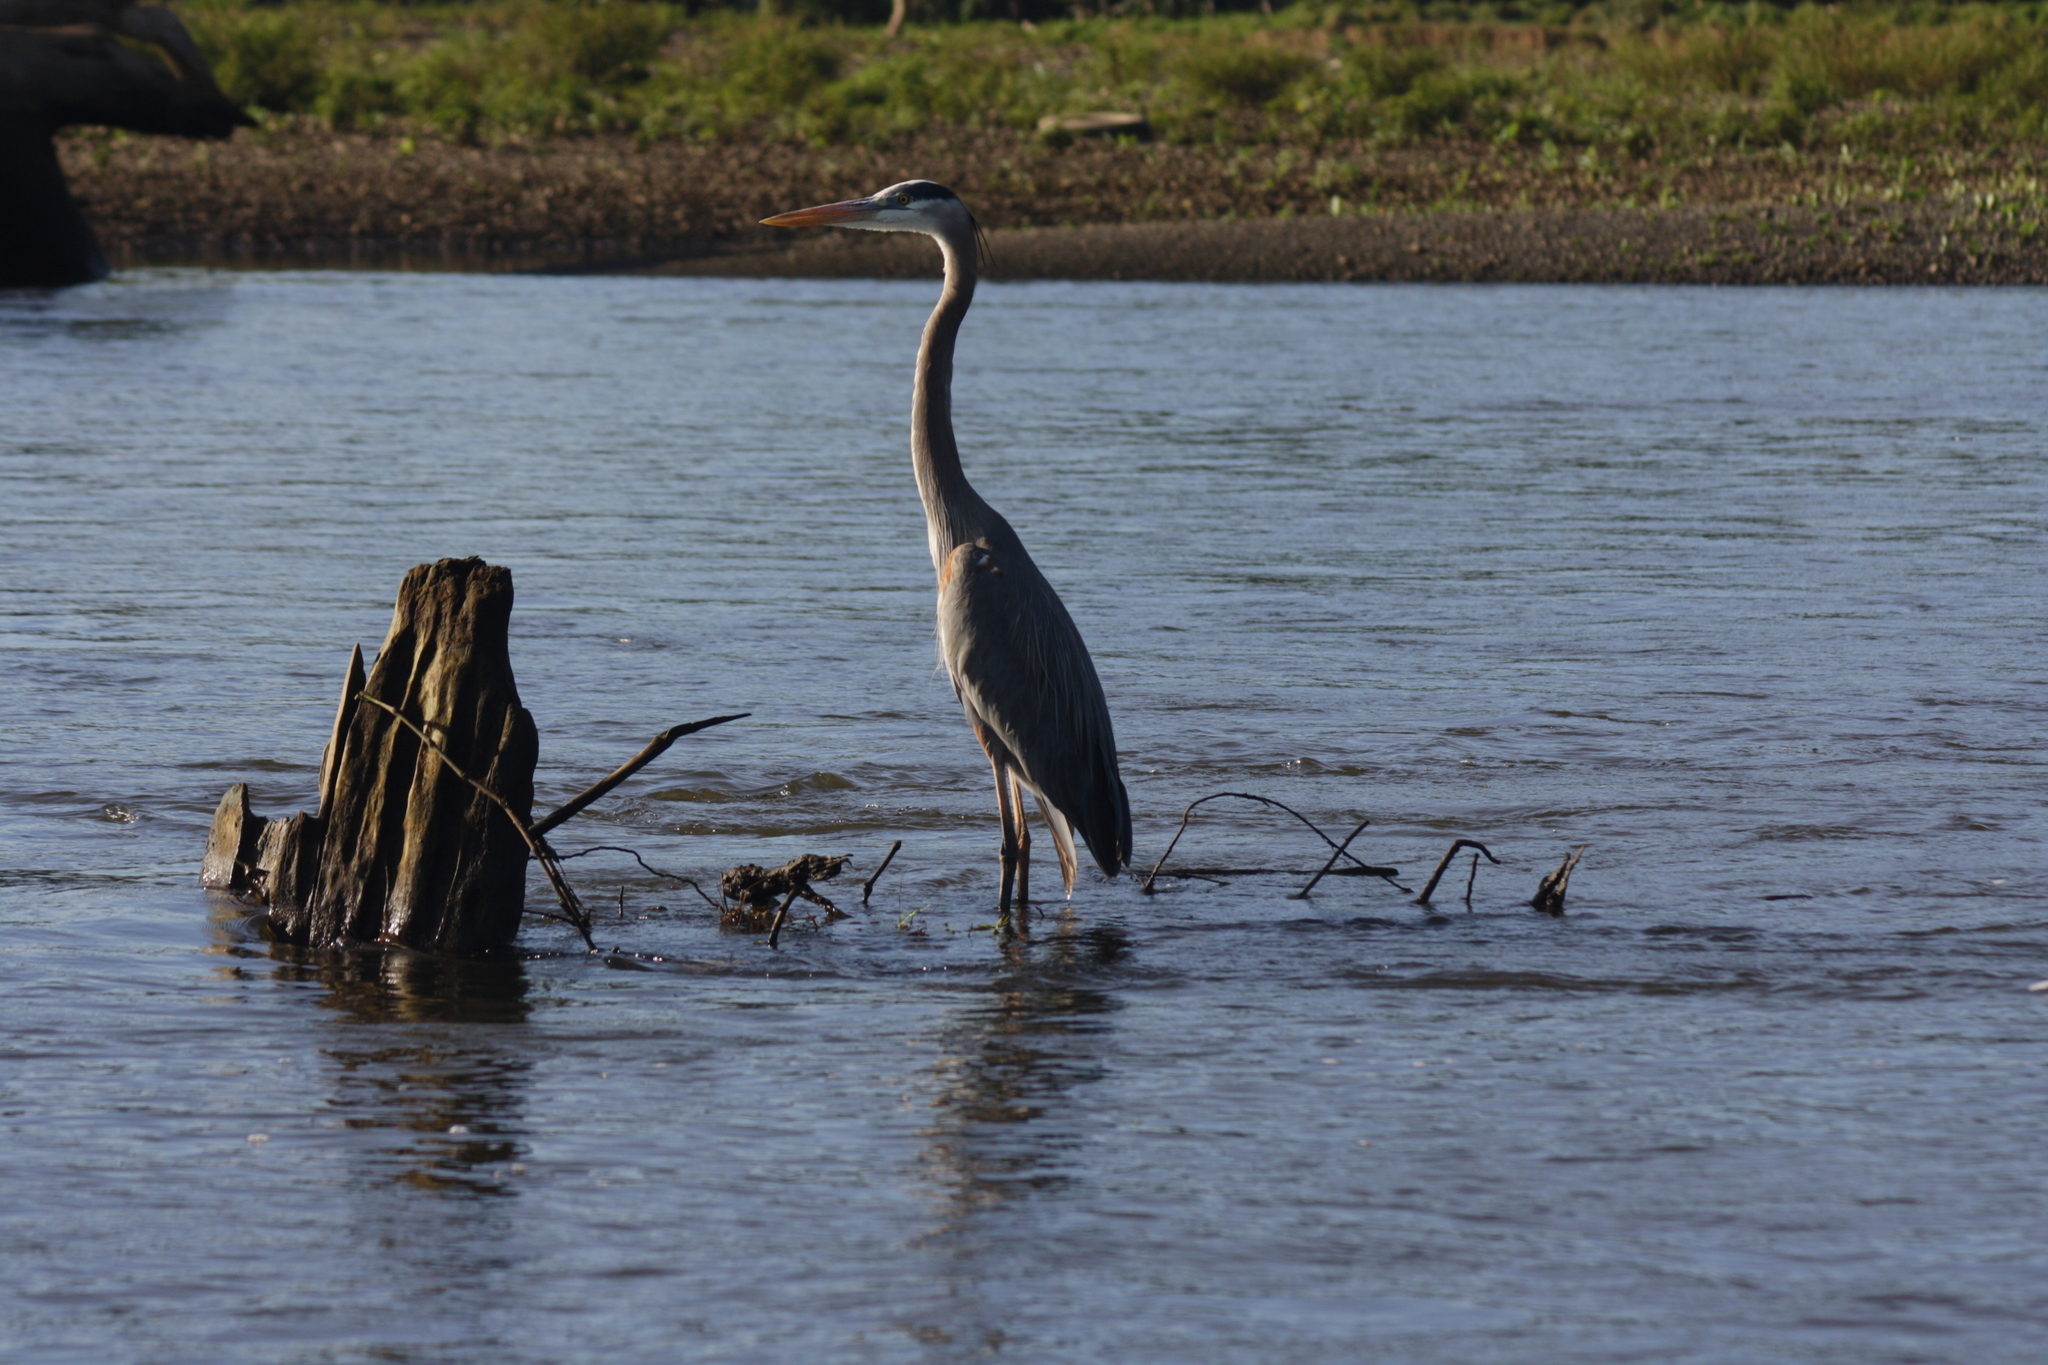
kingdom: Animalia
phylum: Chordata
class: Aves
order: Pelecaniformes
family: Ardeidae
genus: Ardea
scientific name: Ardea herodias
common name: Great blue heron
